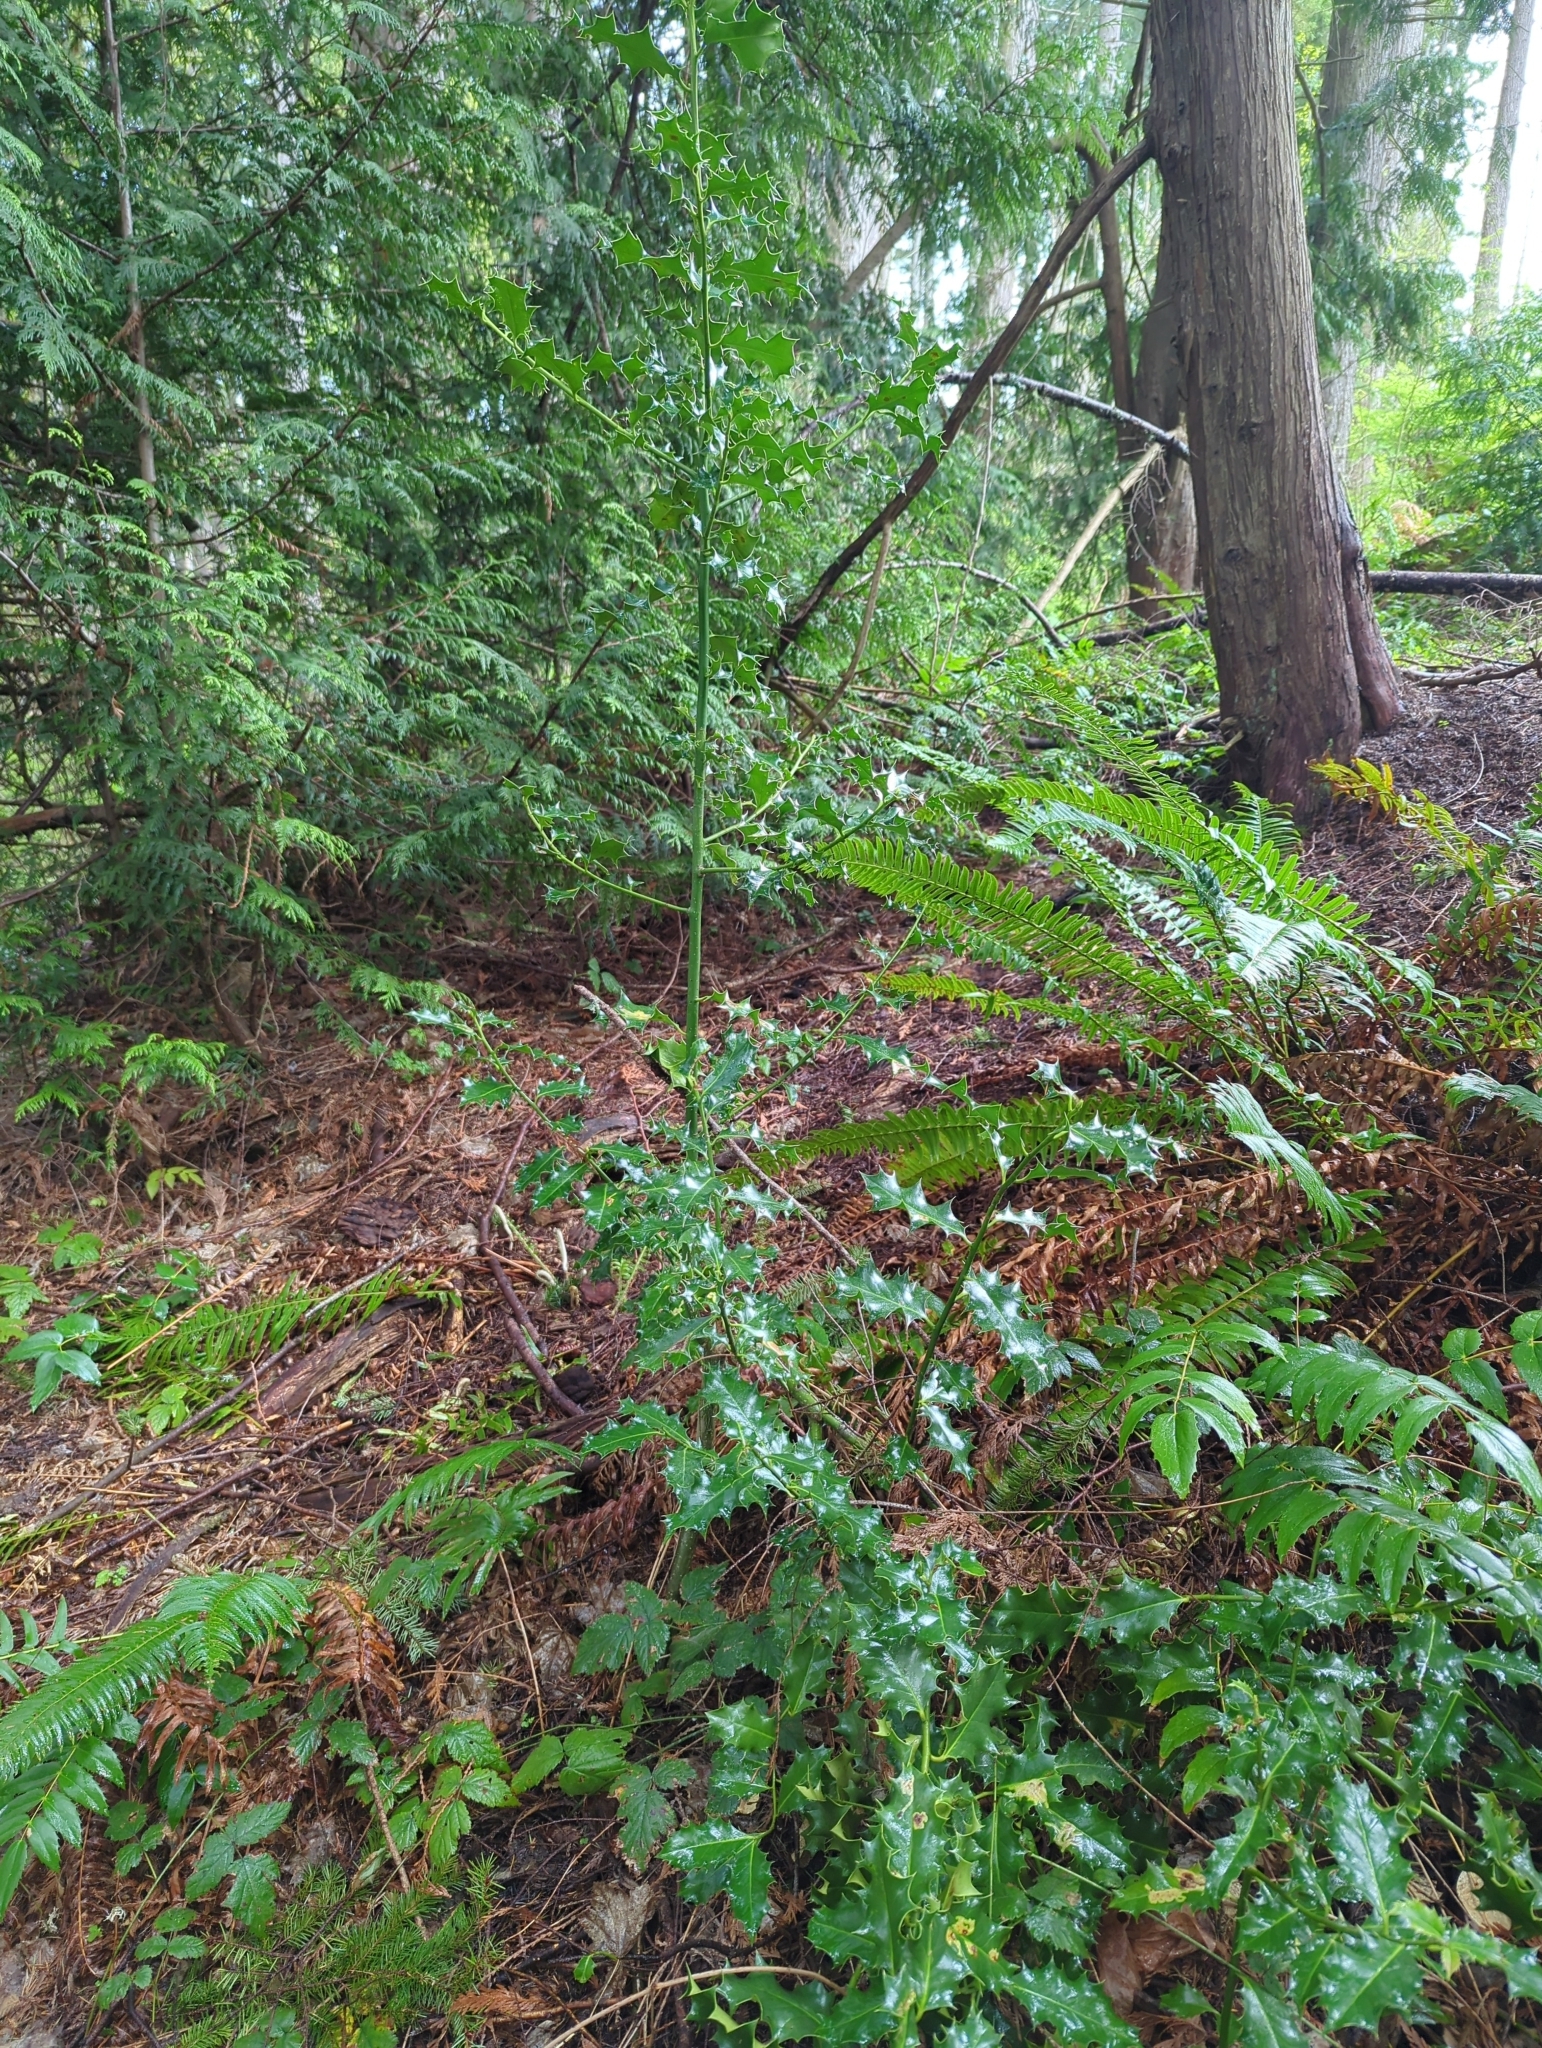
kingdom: Plantae
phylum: Tracheophyta
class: Magnoliopsida
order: Aquifoliales
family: Aquifoliaceae
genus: Ilex
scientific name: Ilex aquifolium
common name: English holly
